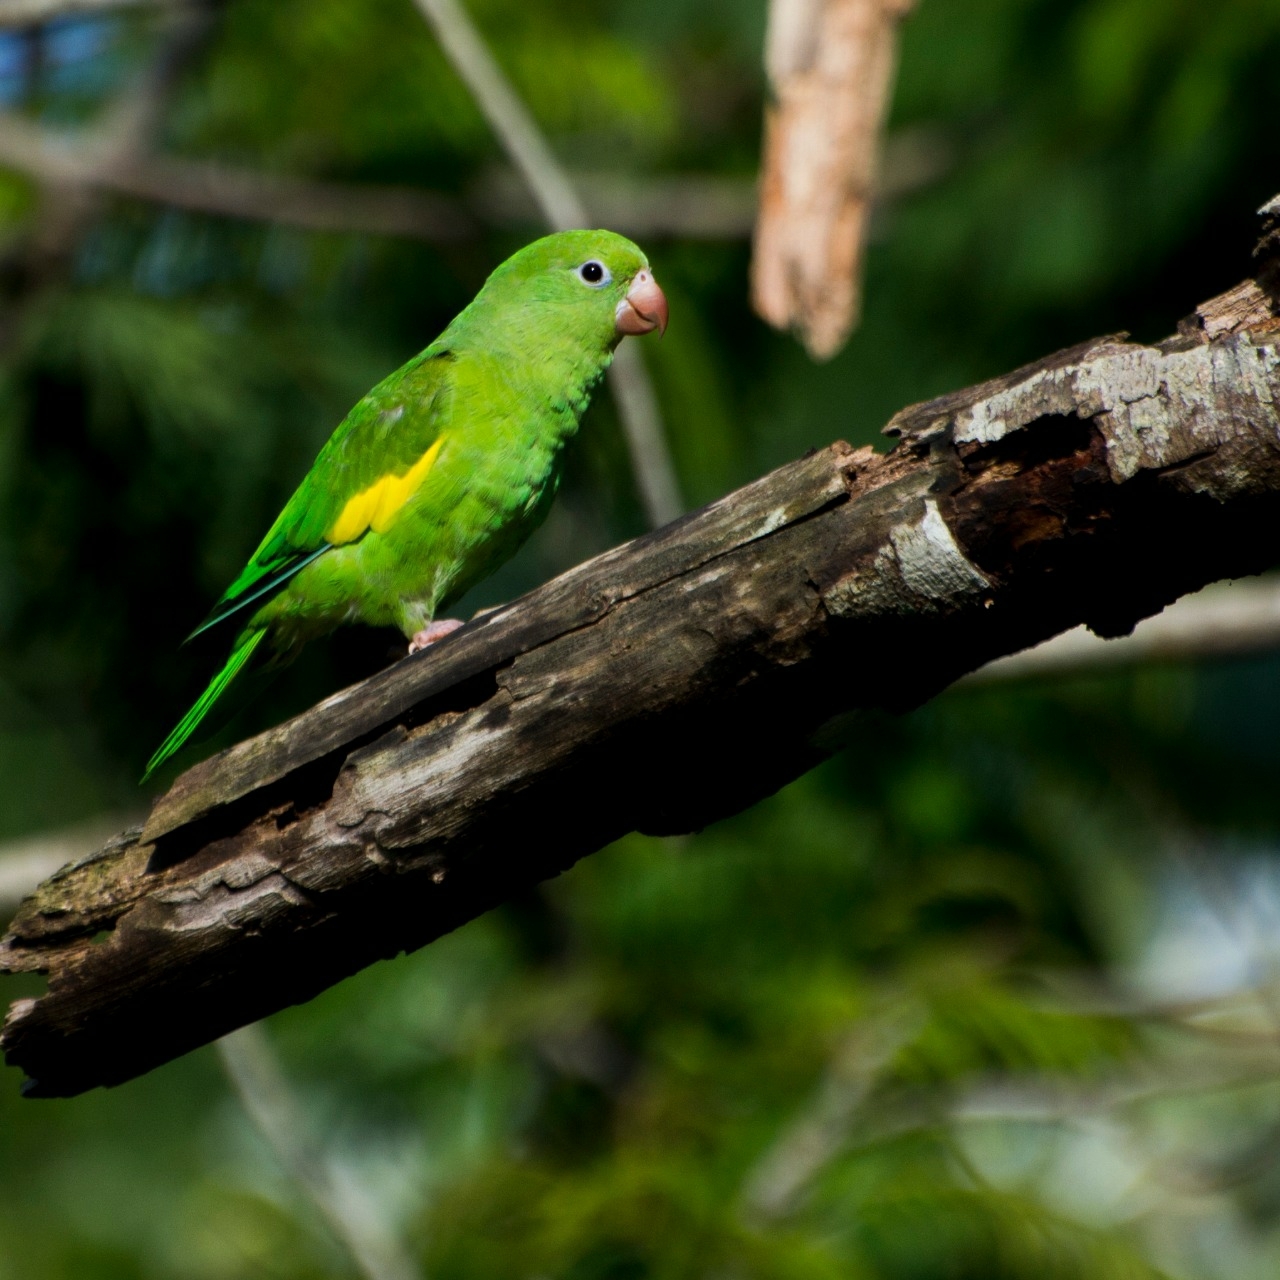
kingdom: Animalia
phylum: Chordata
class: Aves
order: Psittaciformes
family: Psittacidae
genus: Brotogeris
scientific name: Brotogeris chiriri
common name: Yellow-chevroned parakeet
